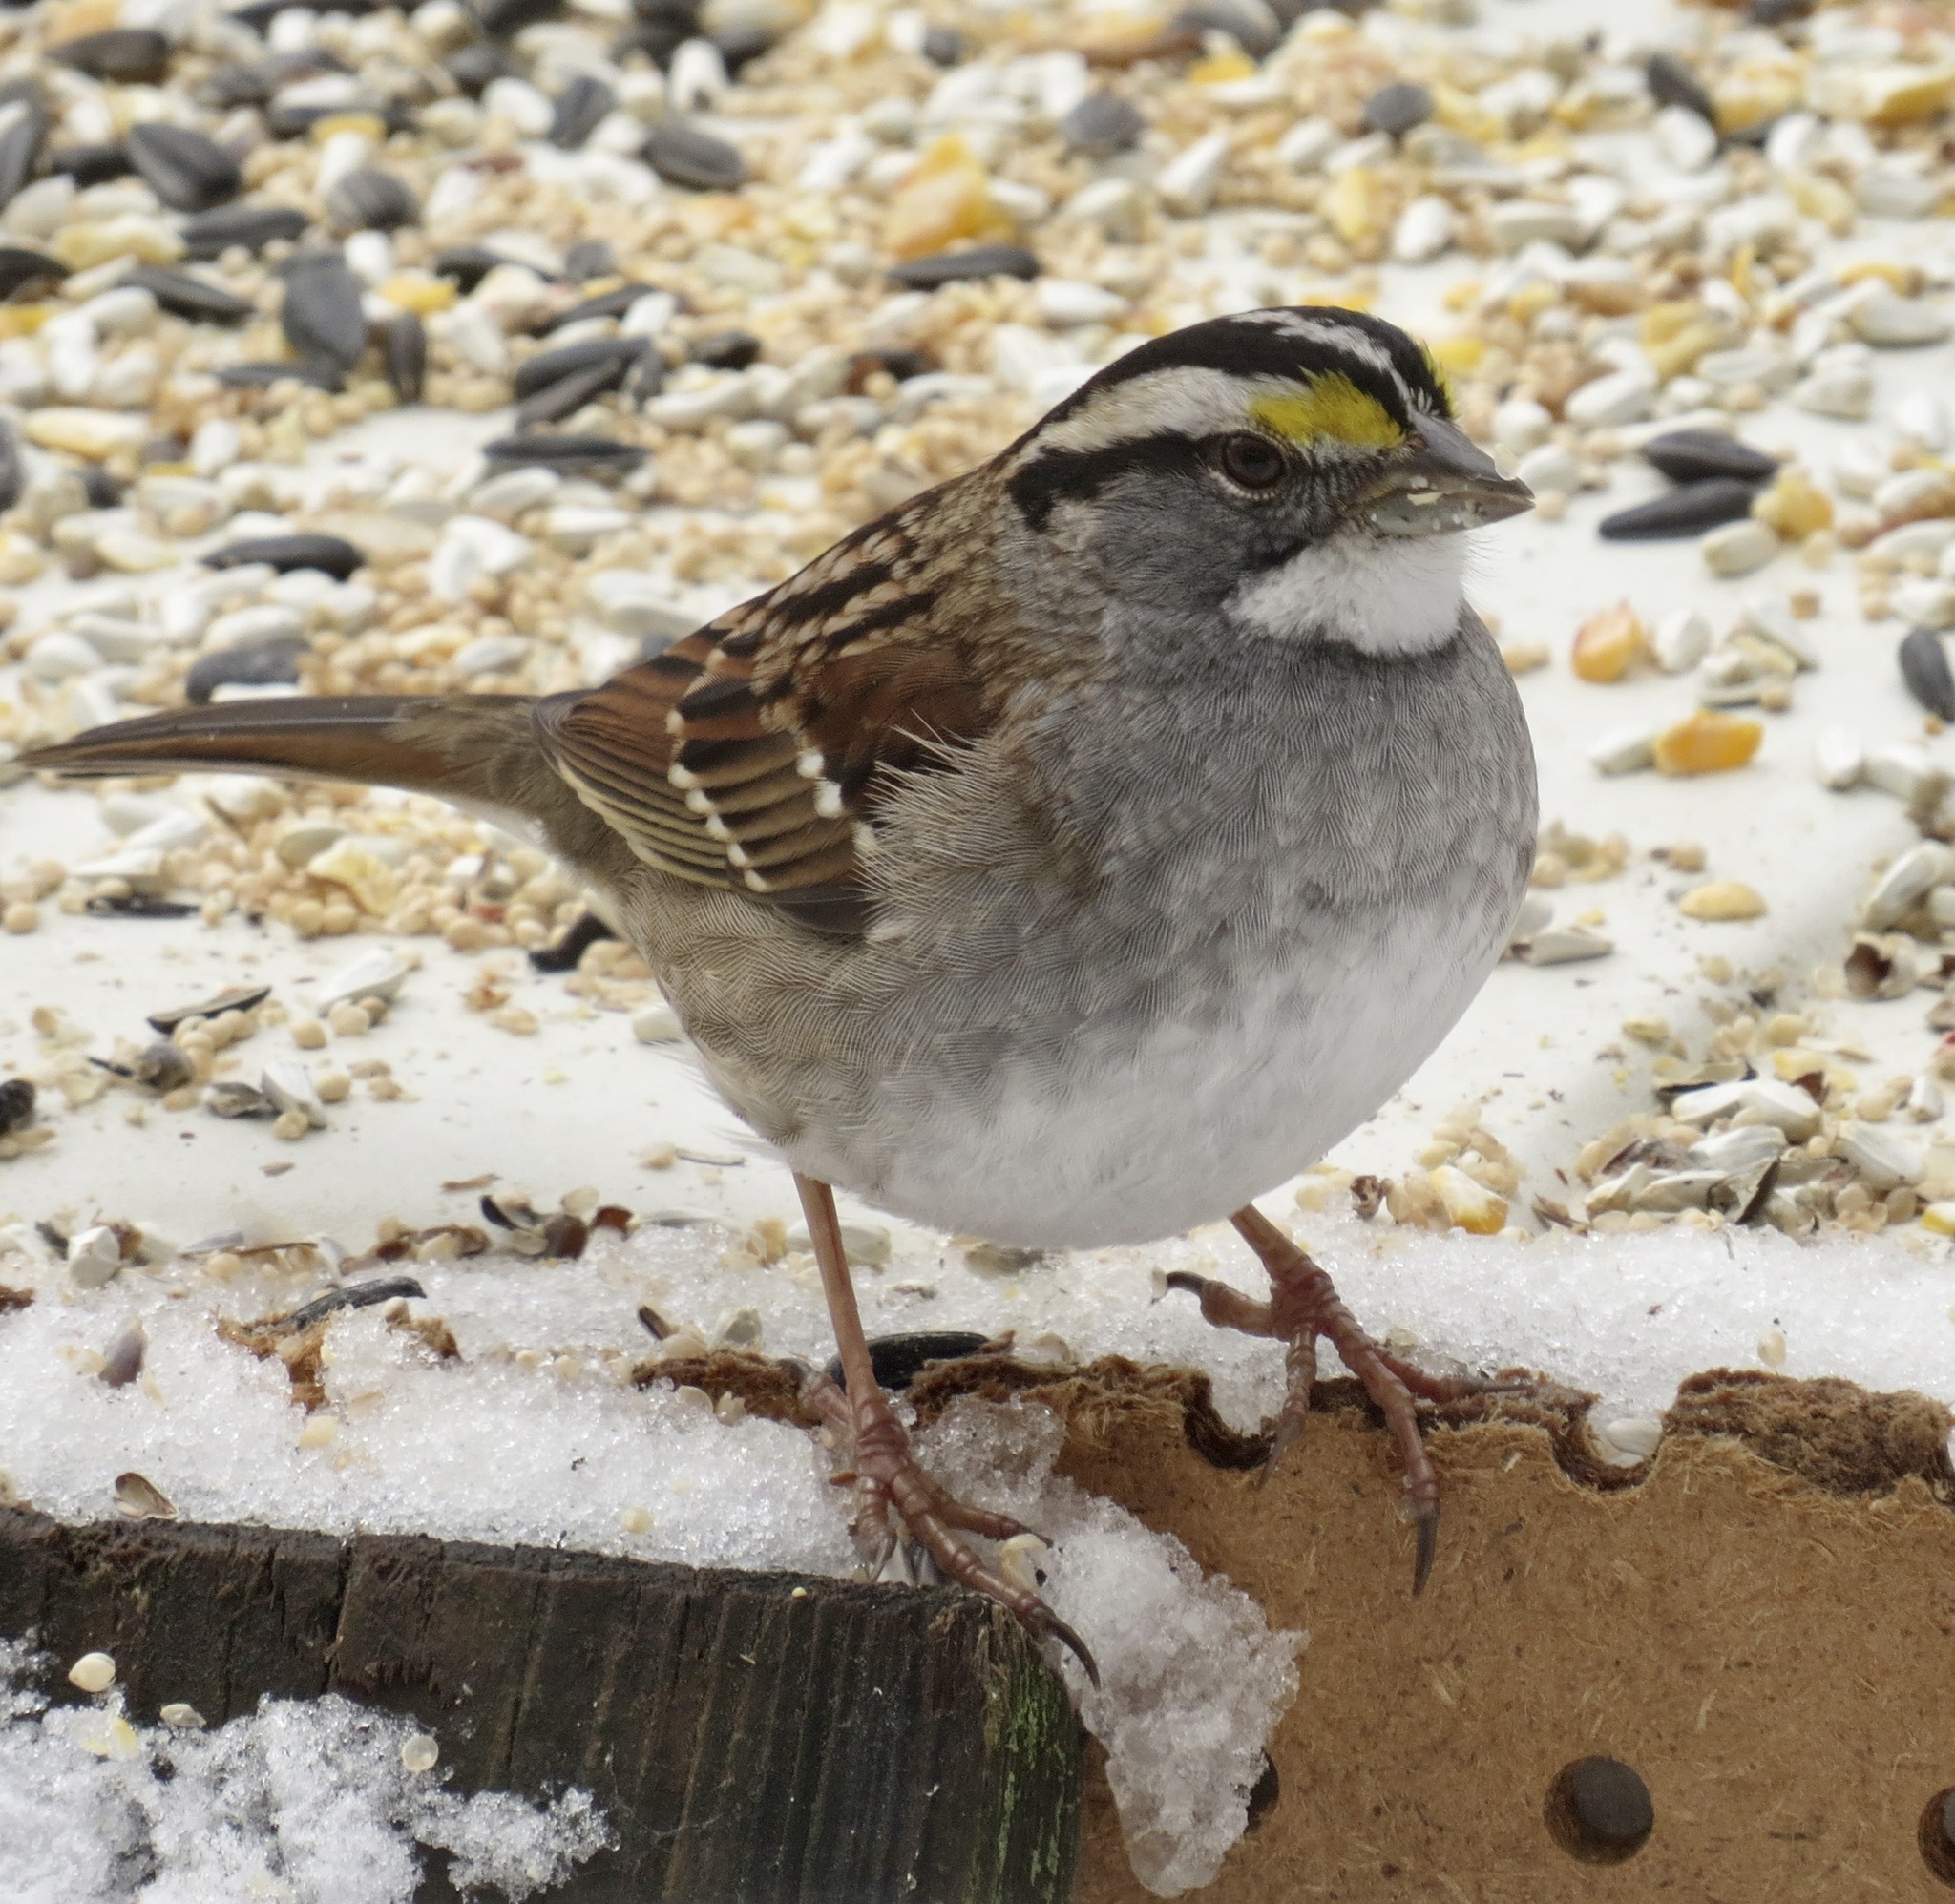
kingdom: Animalia
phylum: Chordata
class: Aves
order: Passeriformes
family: Passerellidae
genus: Zonotrichia
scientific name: Zonotrichia albicollis
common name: White-throated sparrow
